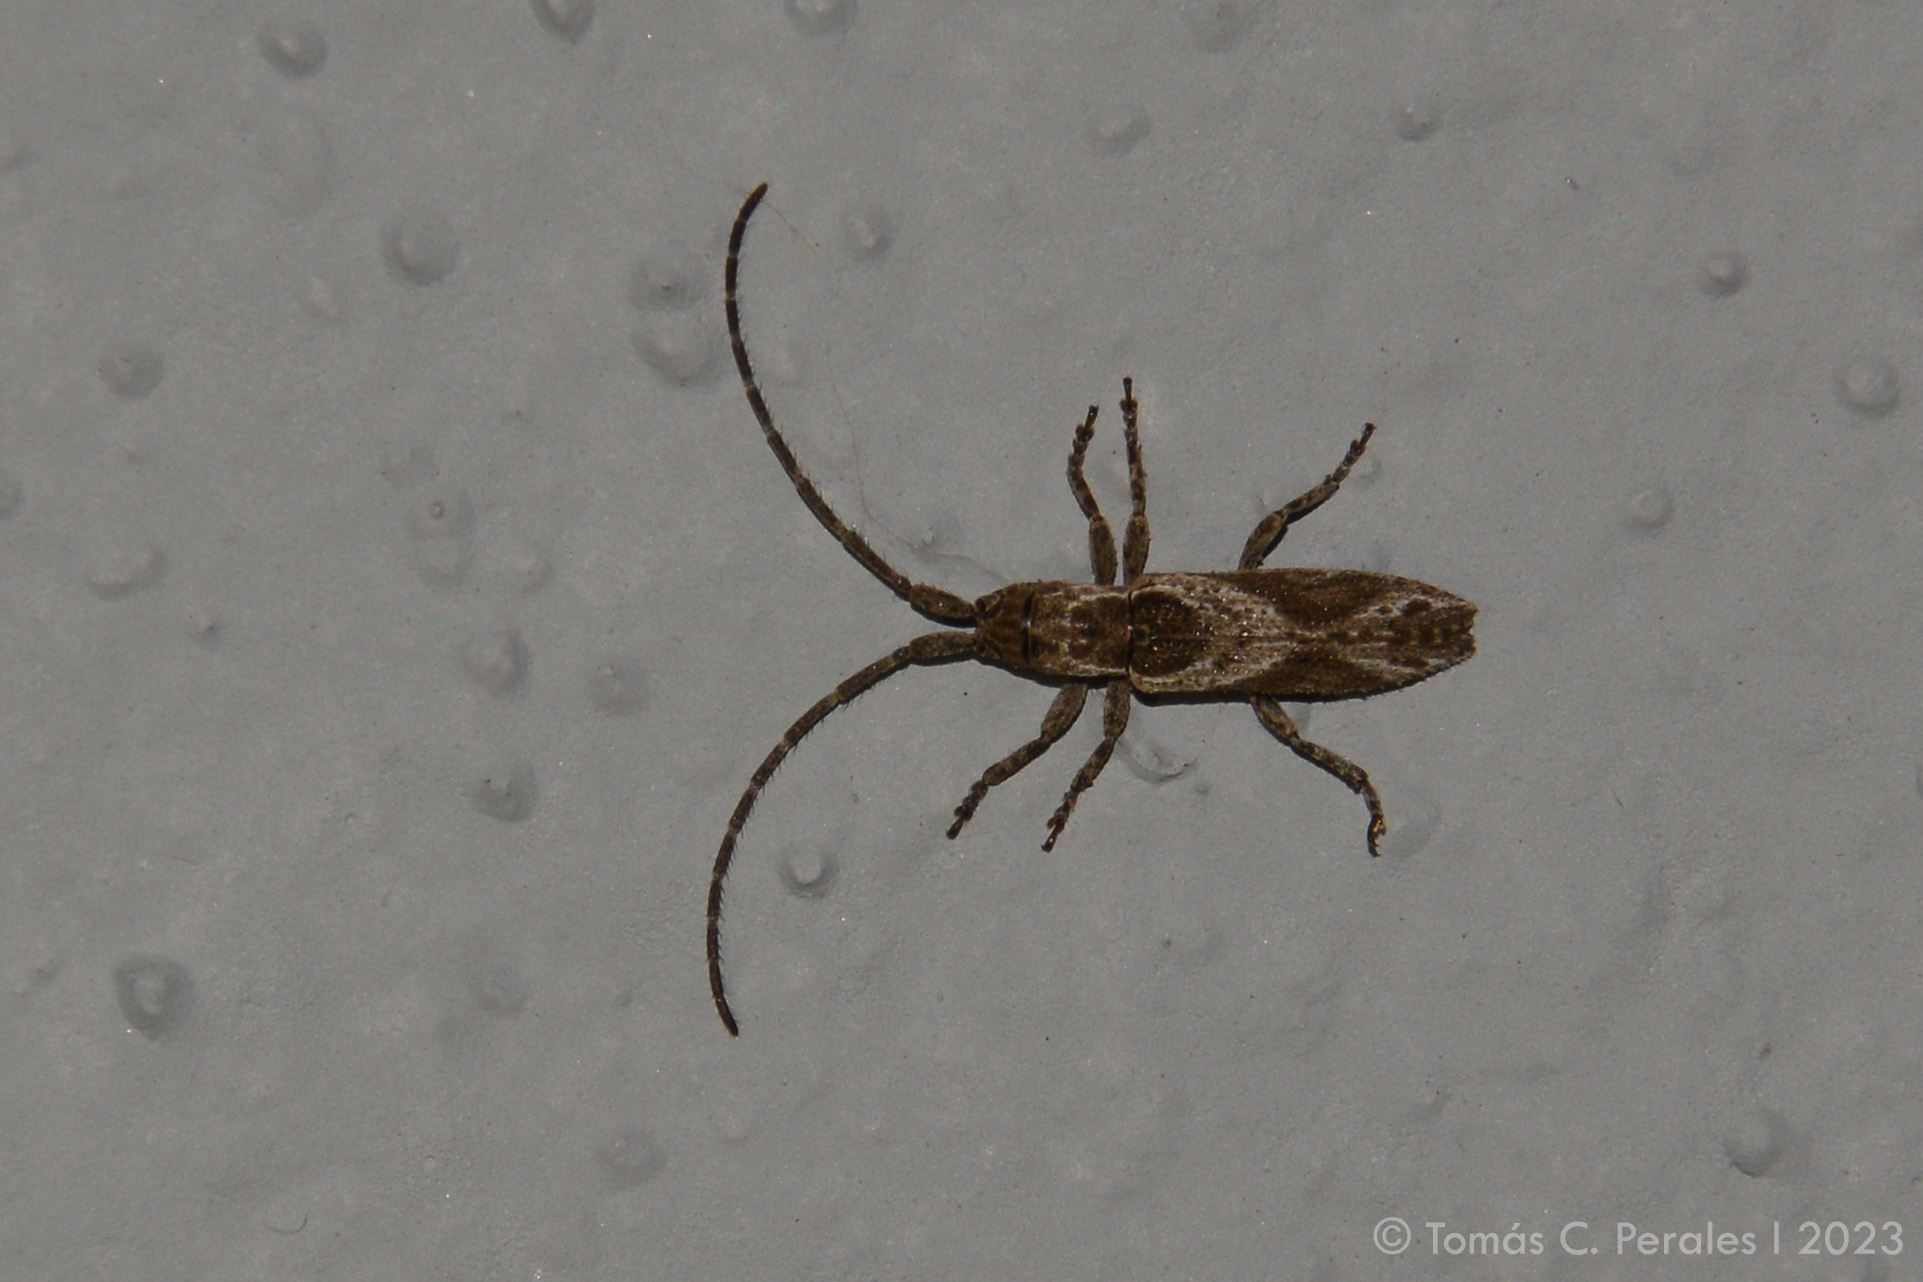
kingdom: Animalia
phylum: Arthropoda
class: Insecta
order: Coleoptera
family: Cerambycidae
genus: Bebelis
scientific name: Bebelis pseudolignosa
